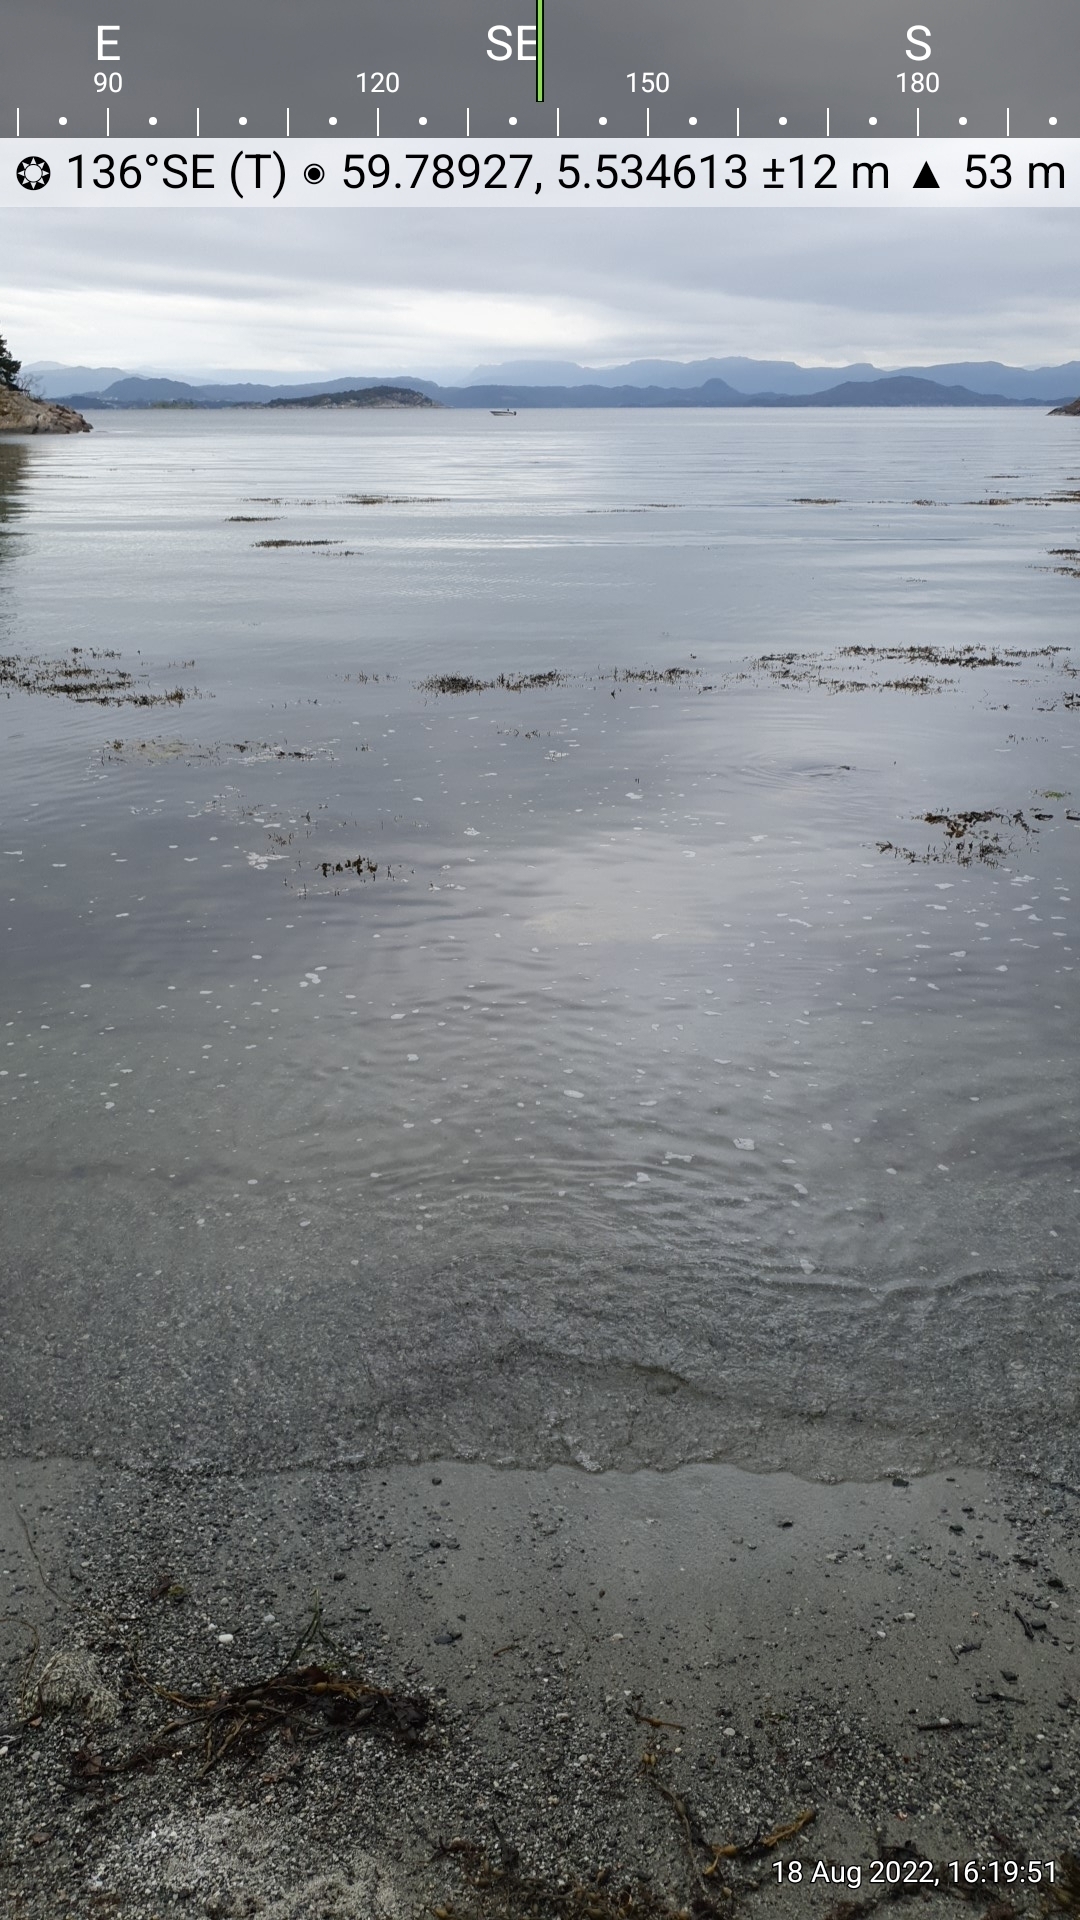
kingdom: Plantae
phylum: Tracheophyta
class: Magnoliopsida
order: Rosales
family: Rosaceae
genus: Argentina
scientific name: Argentina anserina
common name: Common silverweed
